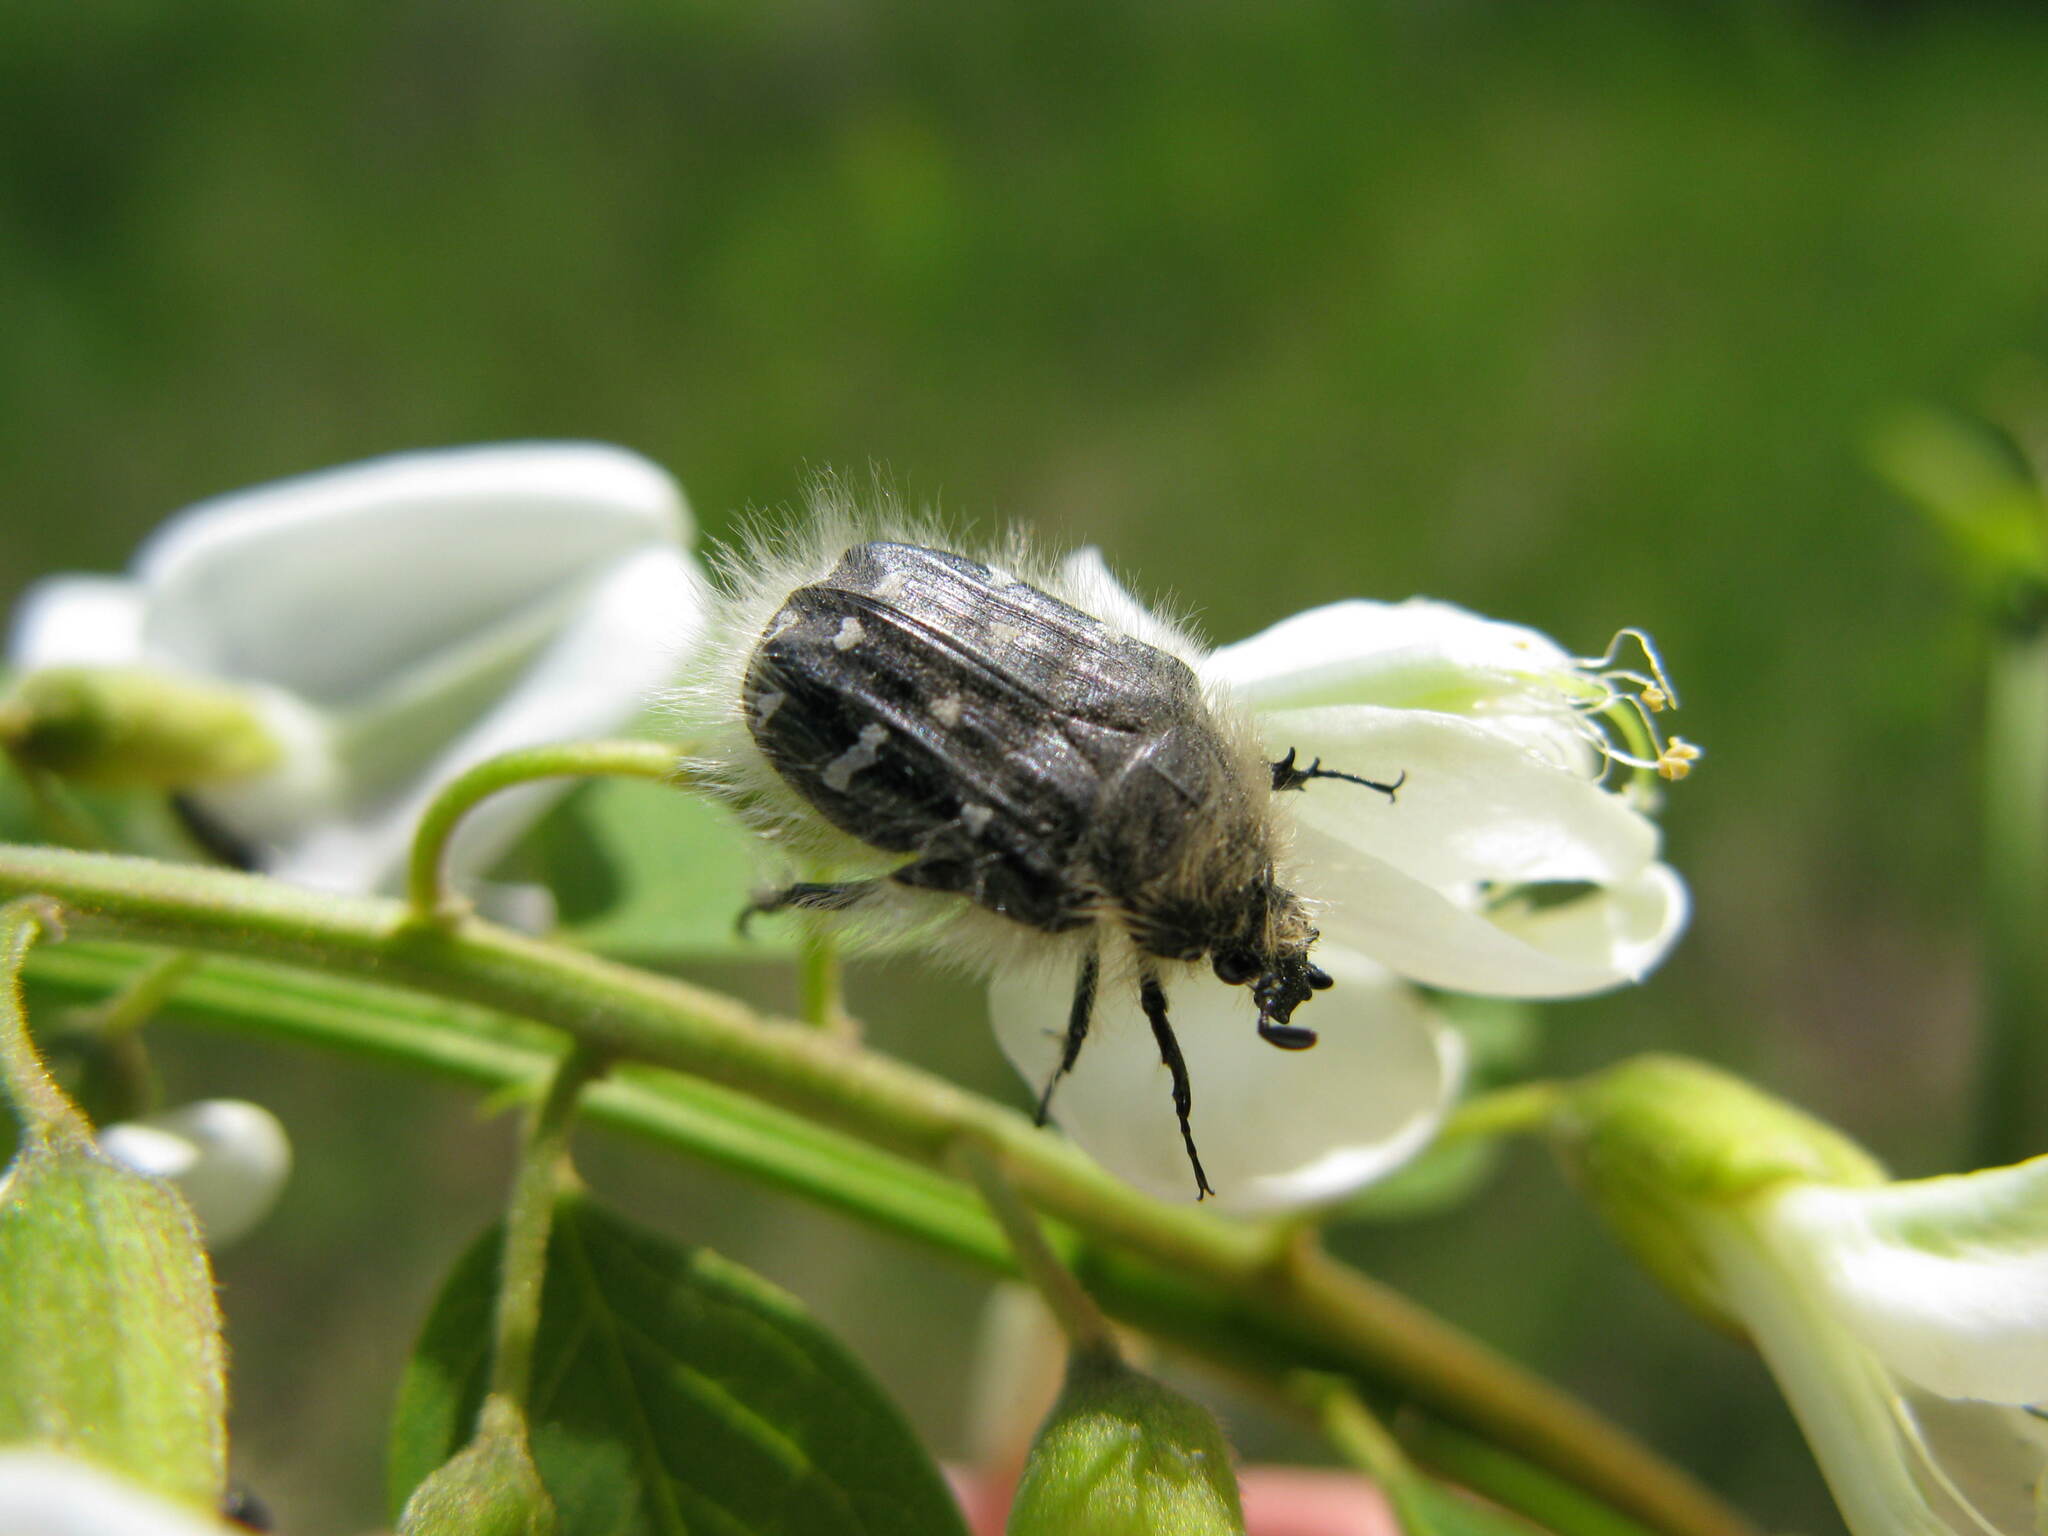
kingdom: Animalia
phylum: Arthropoda
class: Insecta
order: Coleoptera
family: Scarabaeidae
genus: Tropinota
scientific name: Tropinota hirta
